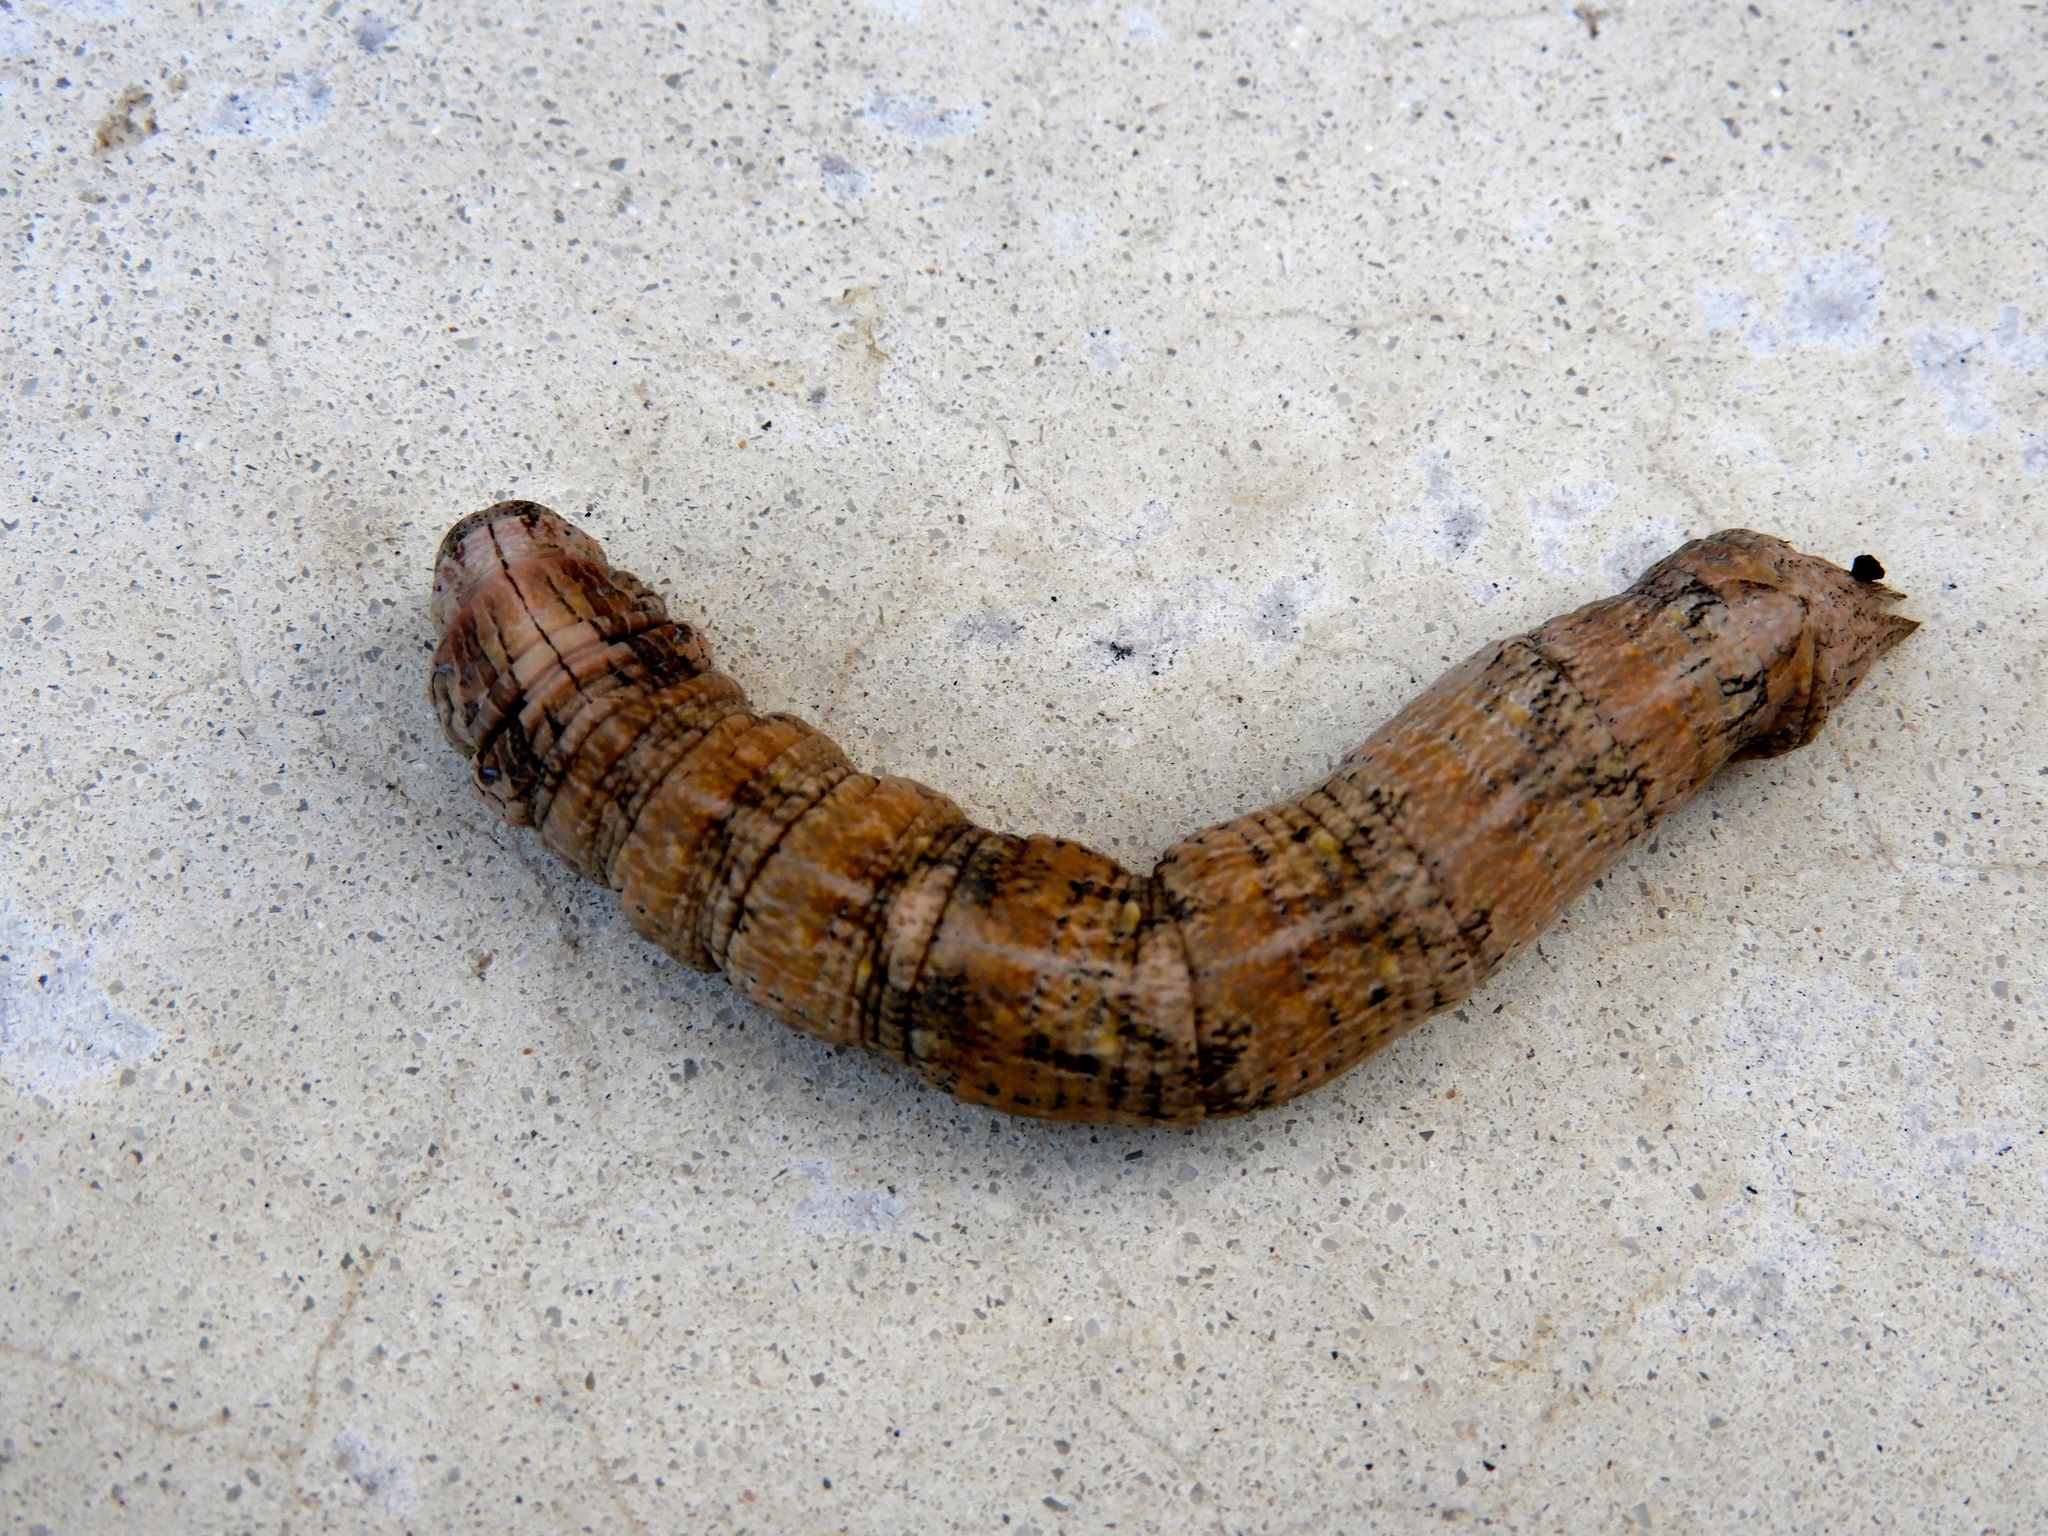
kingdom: Animalia
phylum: Arthropoda
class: Insecta
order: Lepidoptera
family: Sphingidae
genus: Madoryx
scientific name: Madoryx
